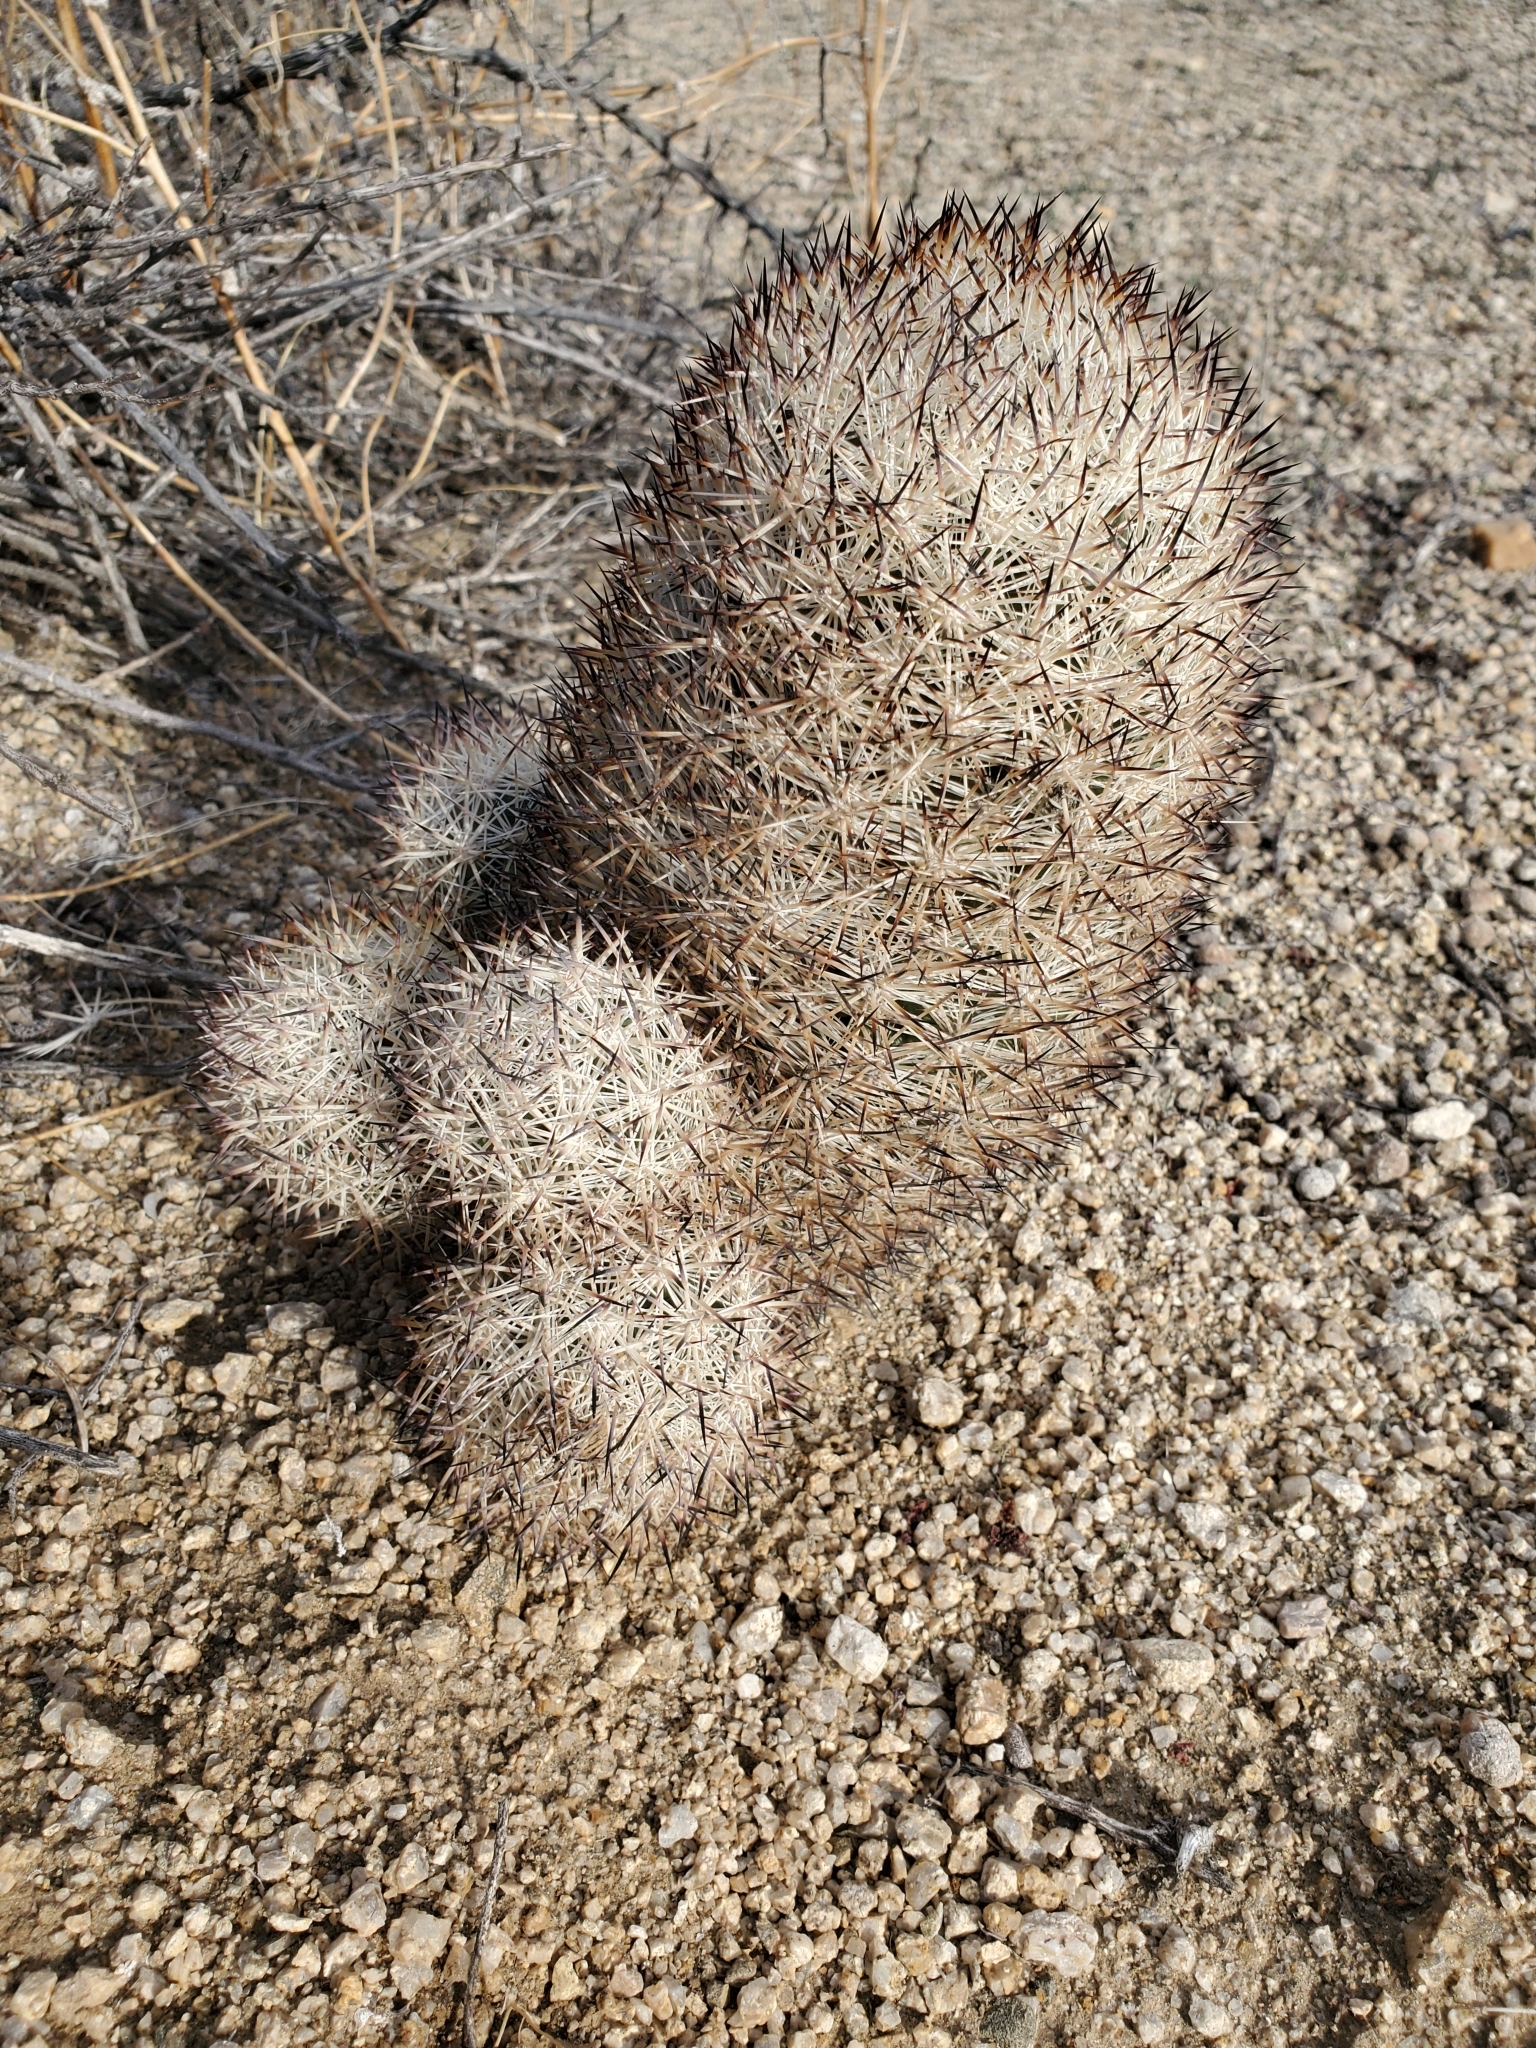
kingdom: Plantae
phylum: Tracheophyta
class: Magnoliopsida
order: Caryophyllales
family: Cactaceae
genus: Pelecyphora
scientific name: Pelecyphora alversonii
